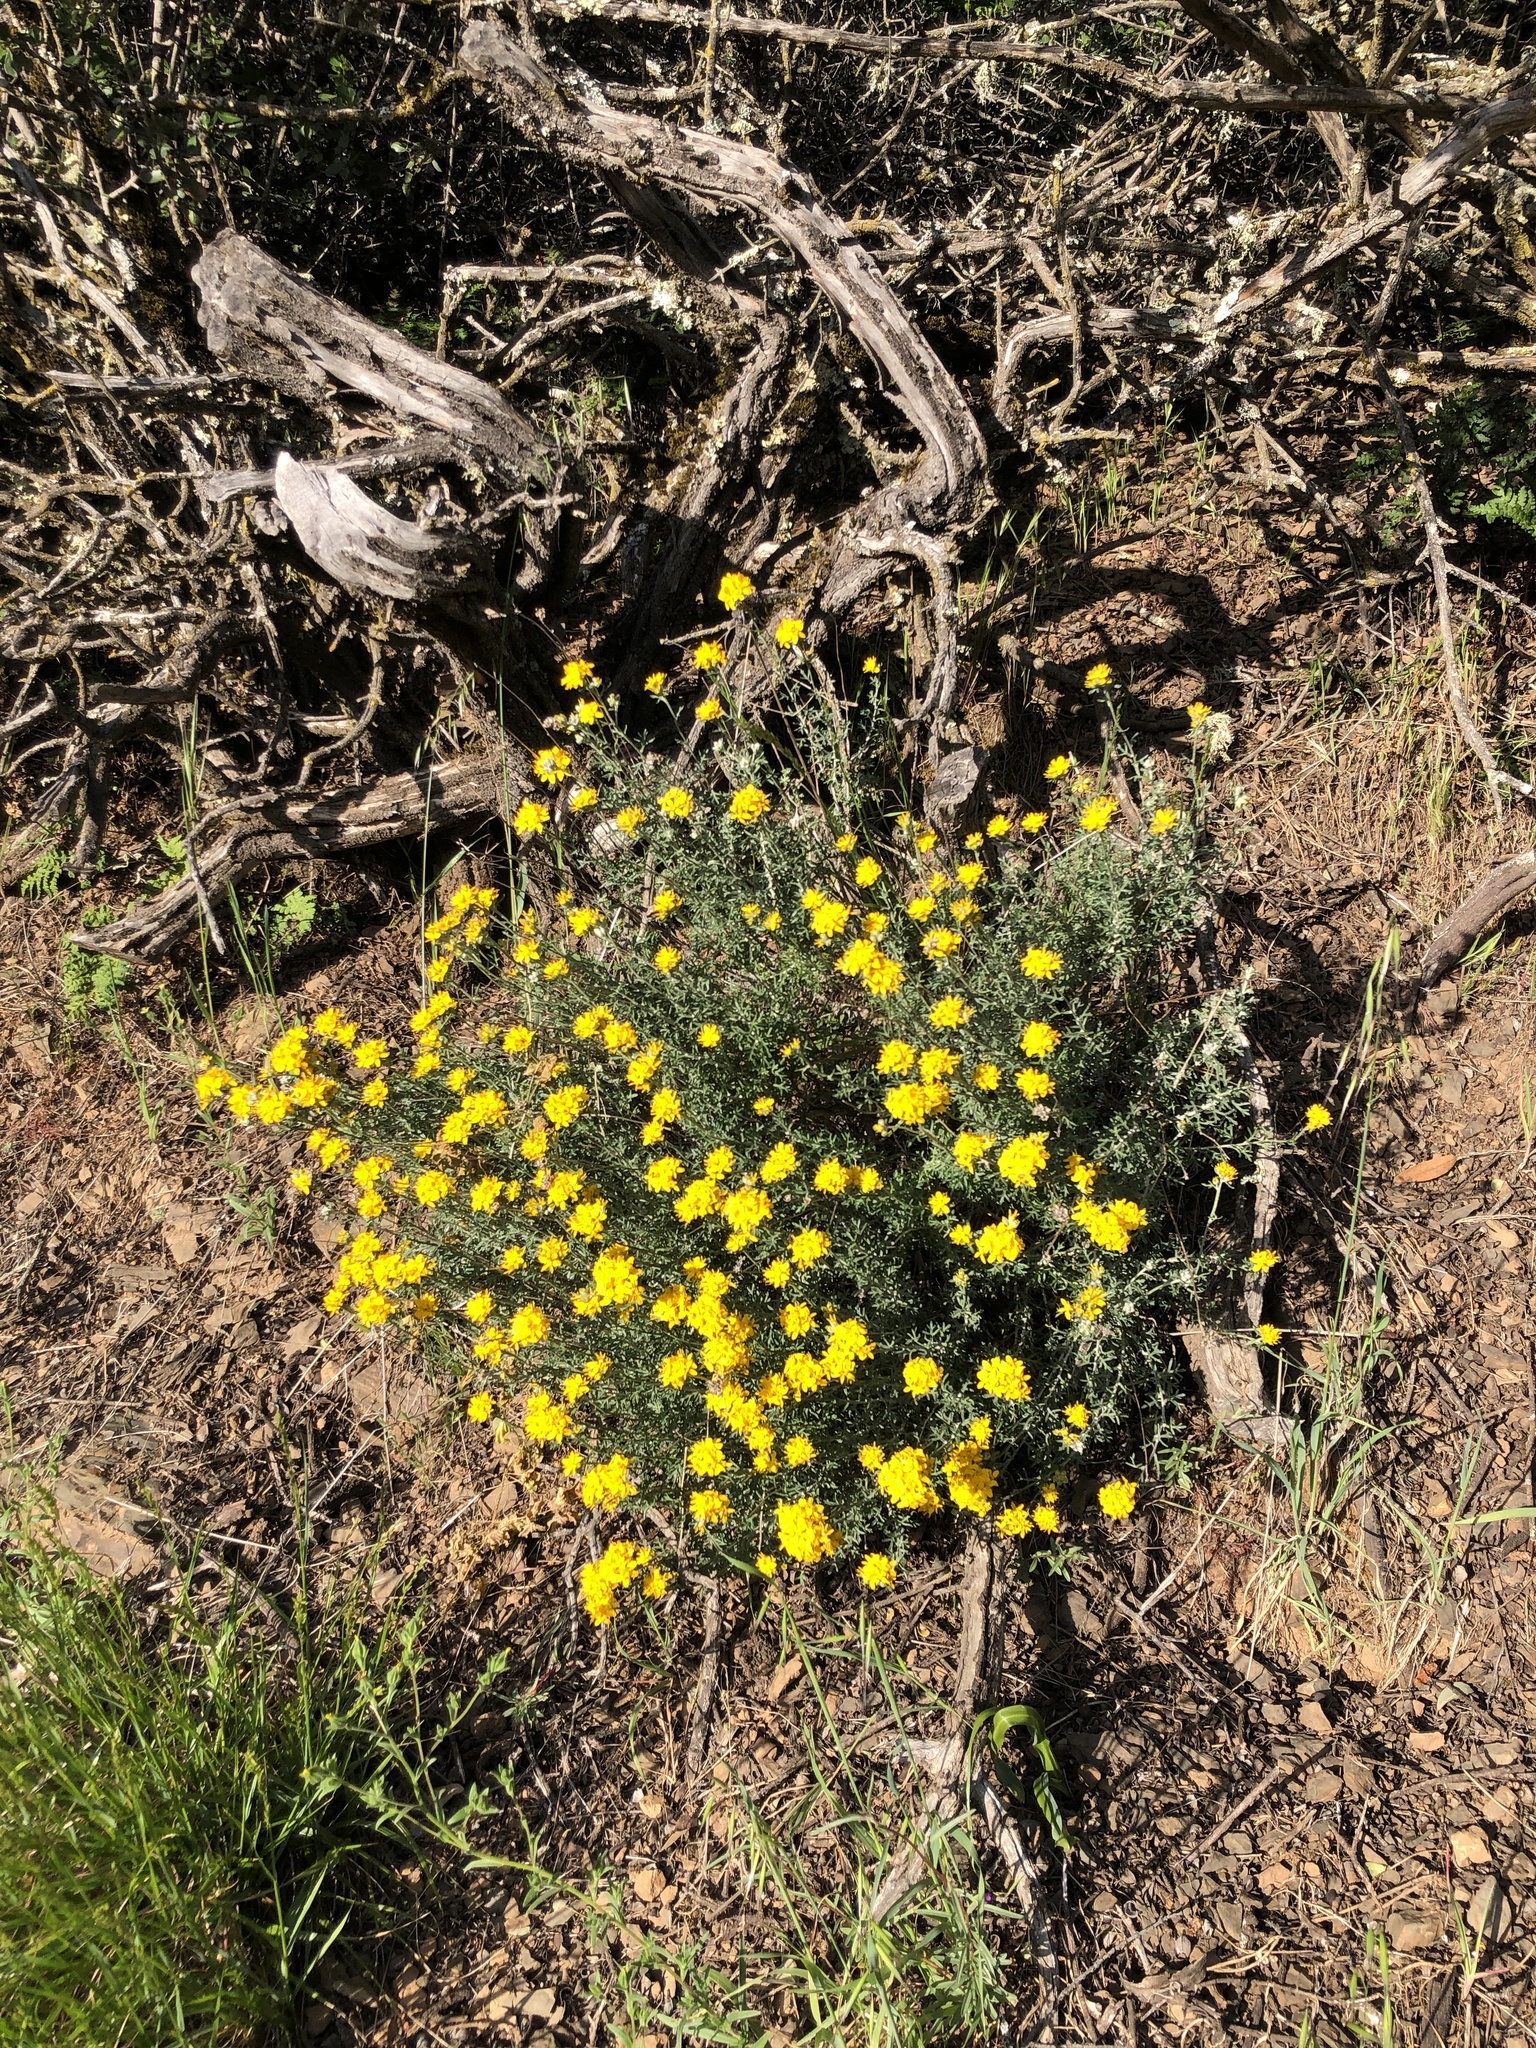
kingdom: Plantae
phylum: Tracheophyta
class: Magnoliopsida
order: Asterales
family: Asteraceae
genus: Eriophyllum
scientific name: Eriophyllum confertiflorum
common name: Golden-yarrow
